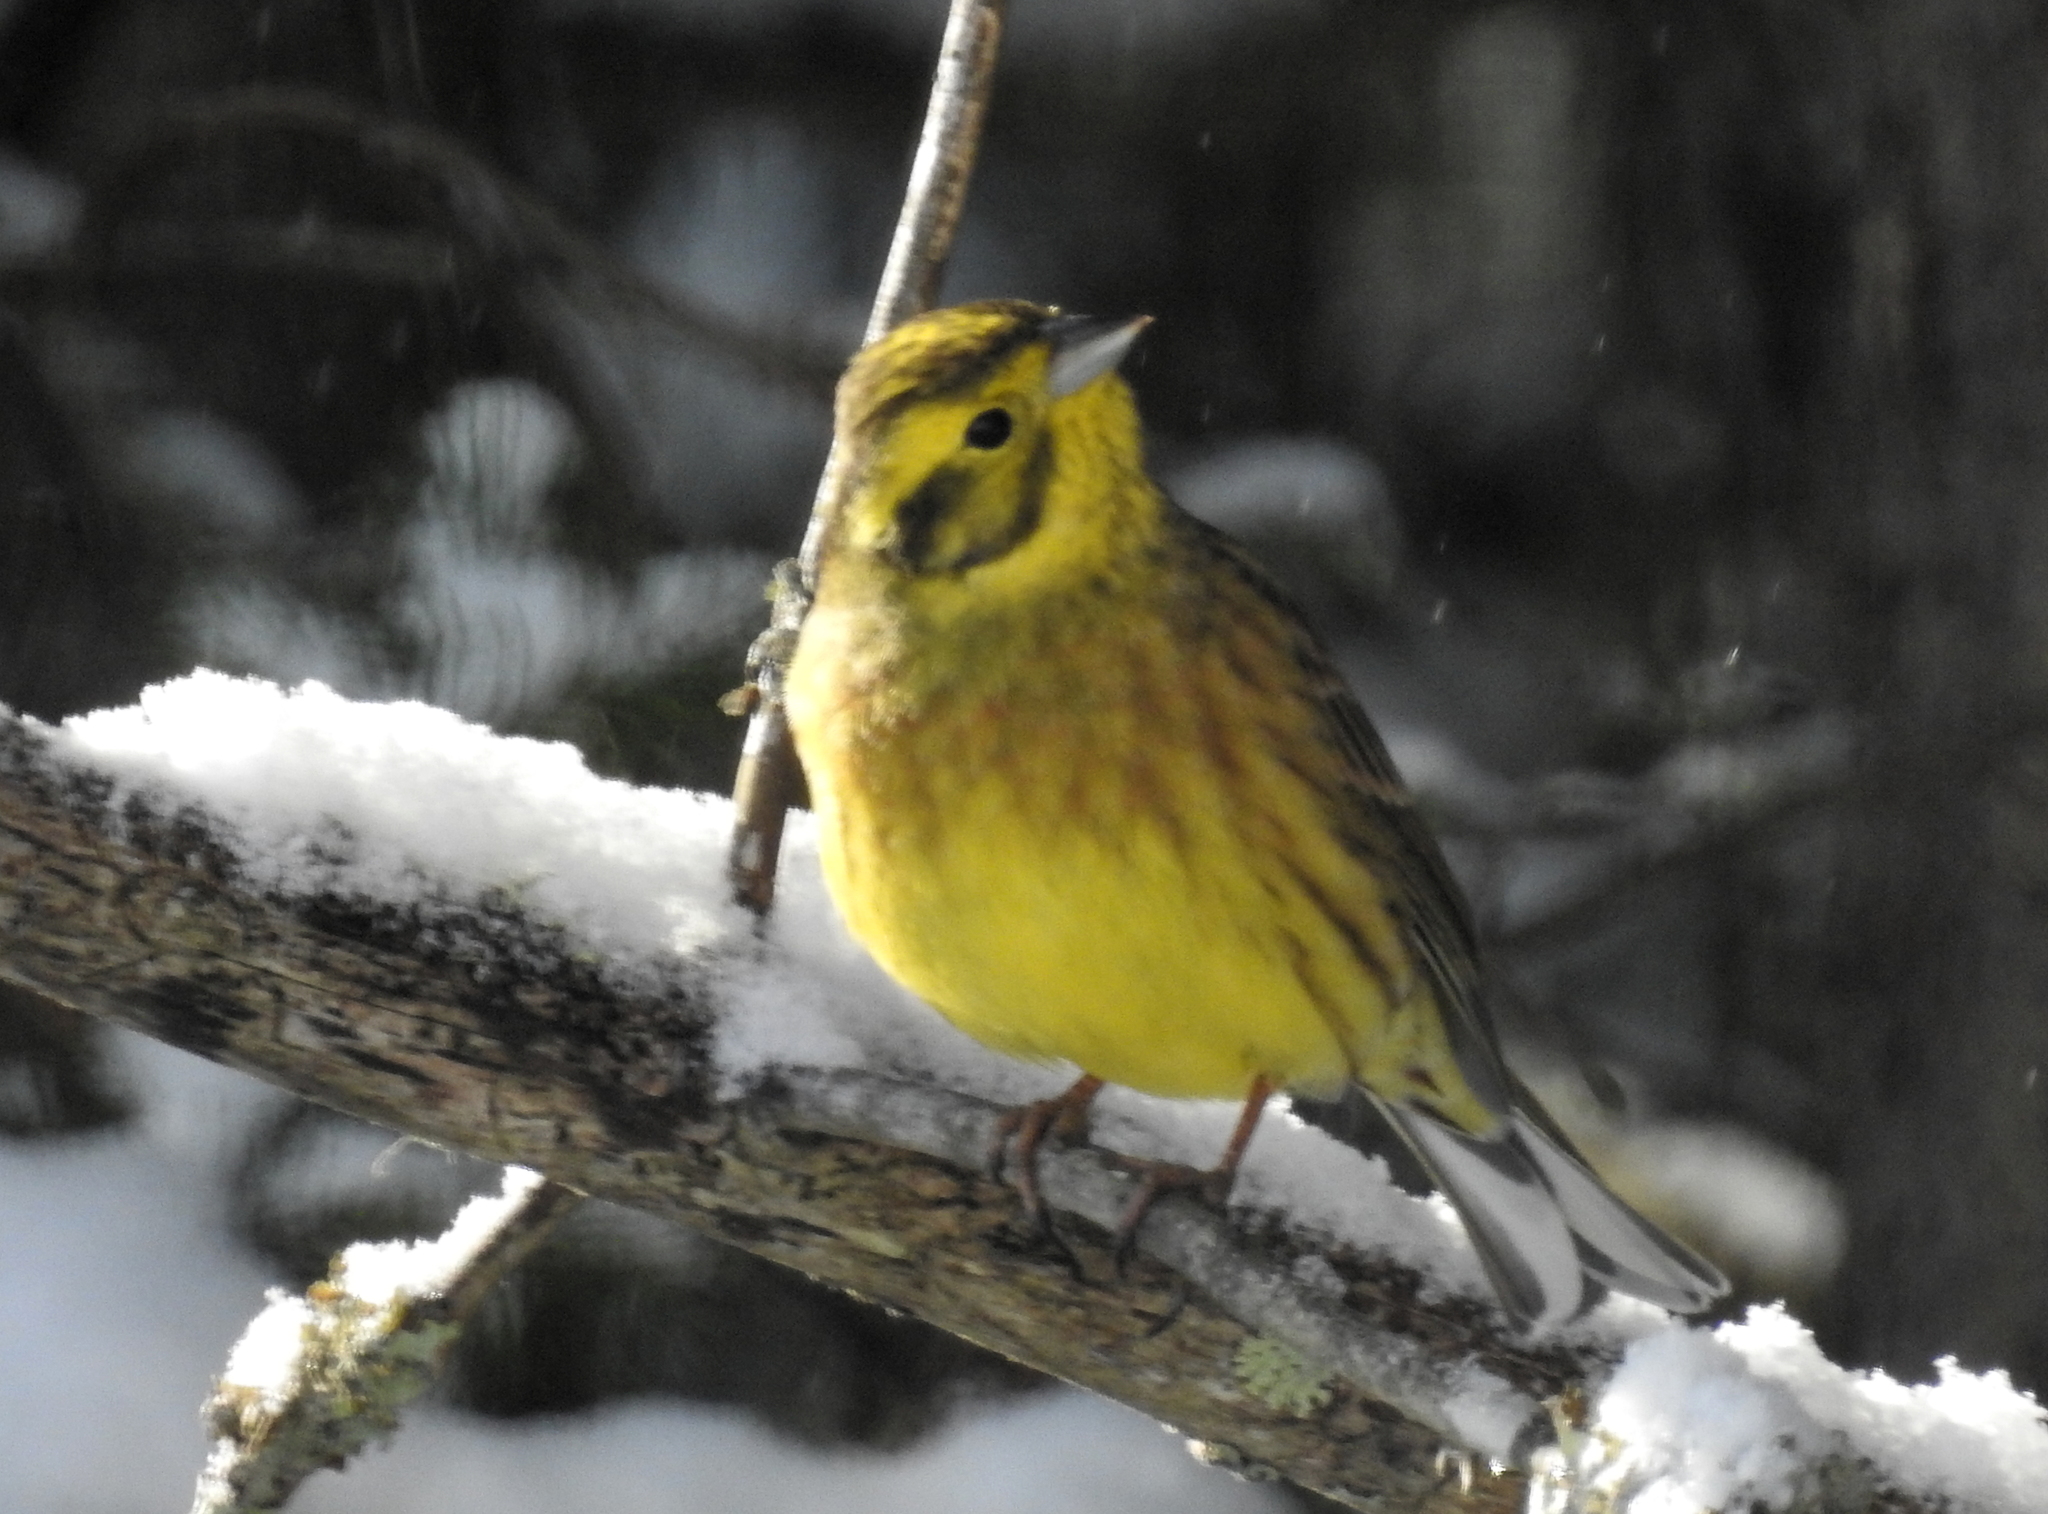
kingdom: Animalia
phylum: Chordata
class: Aves
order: Passeriformes
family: Emberizidae
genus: Emberiza
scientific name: Emberiza citrinella
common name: Yellowhammer
